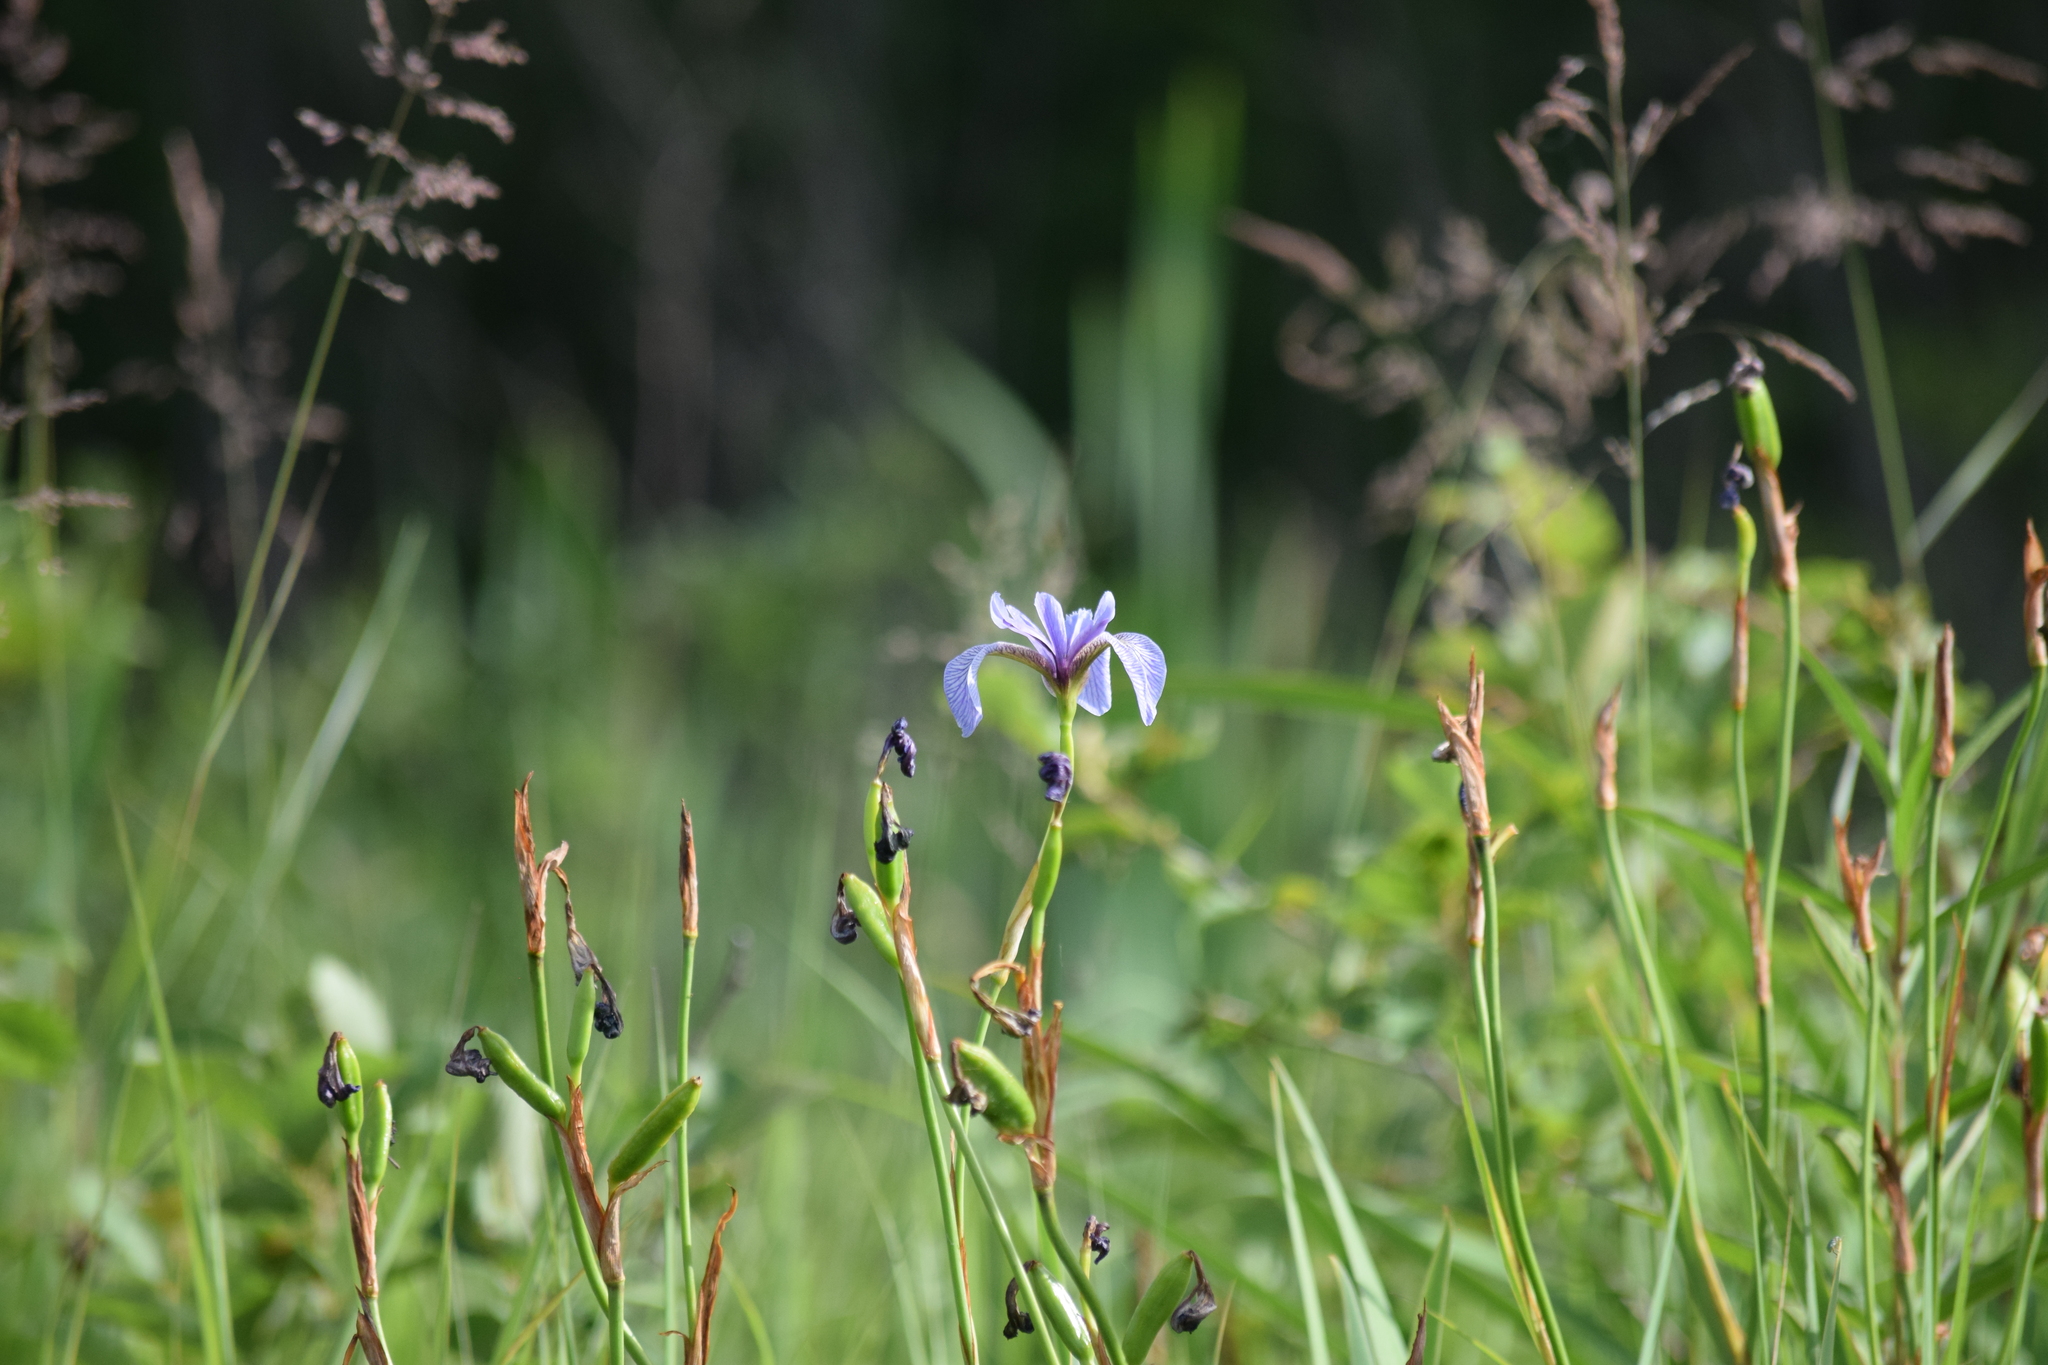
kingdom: Plantae
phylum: Tracheophyta
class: Liliopsida
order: Asparagales
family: Iridaceae
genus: Iris
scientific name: Iris versicolor
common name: Purple iris
